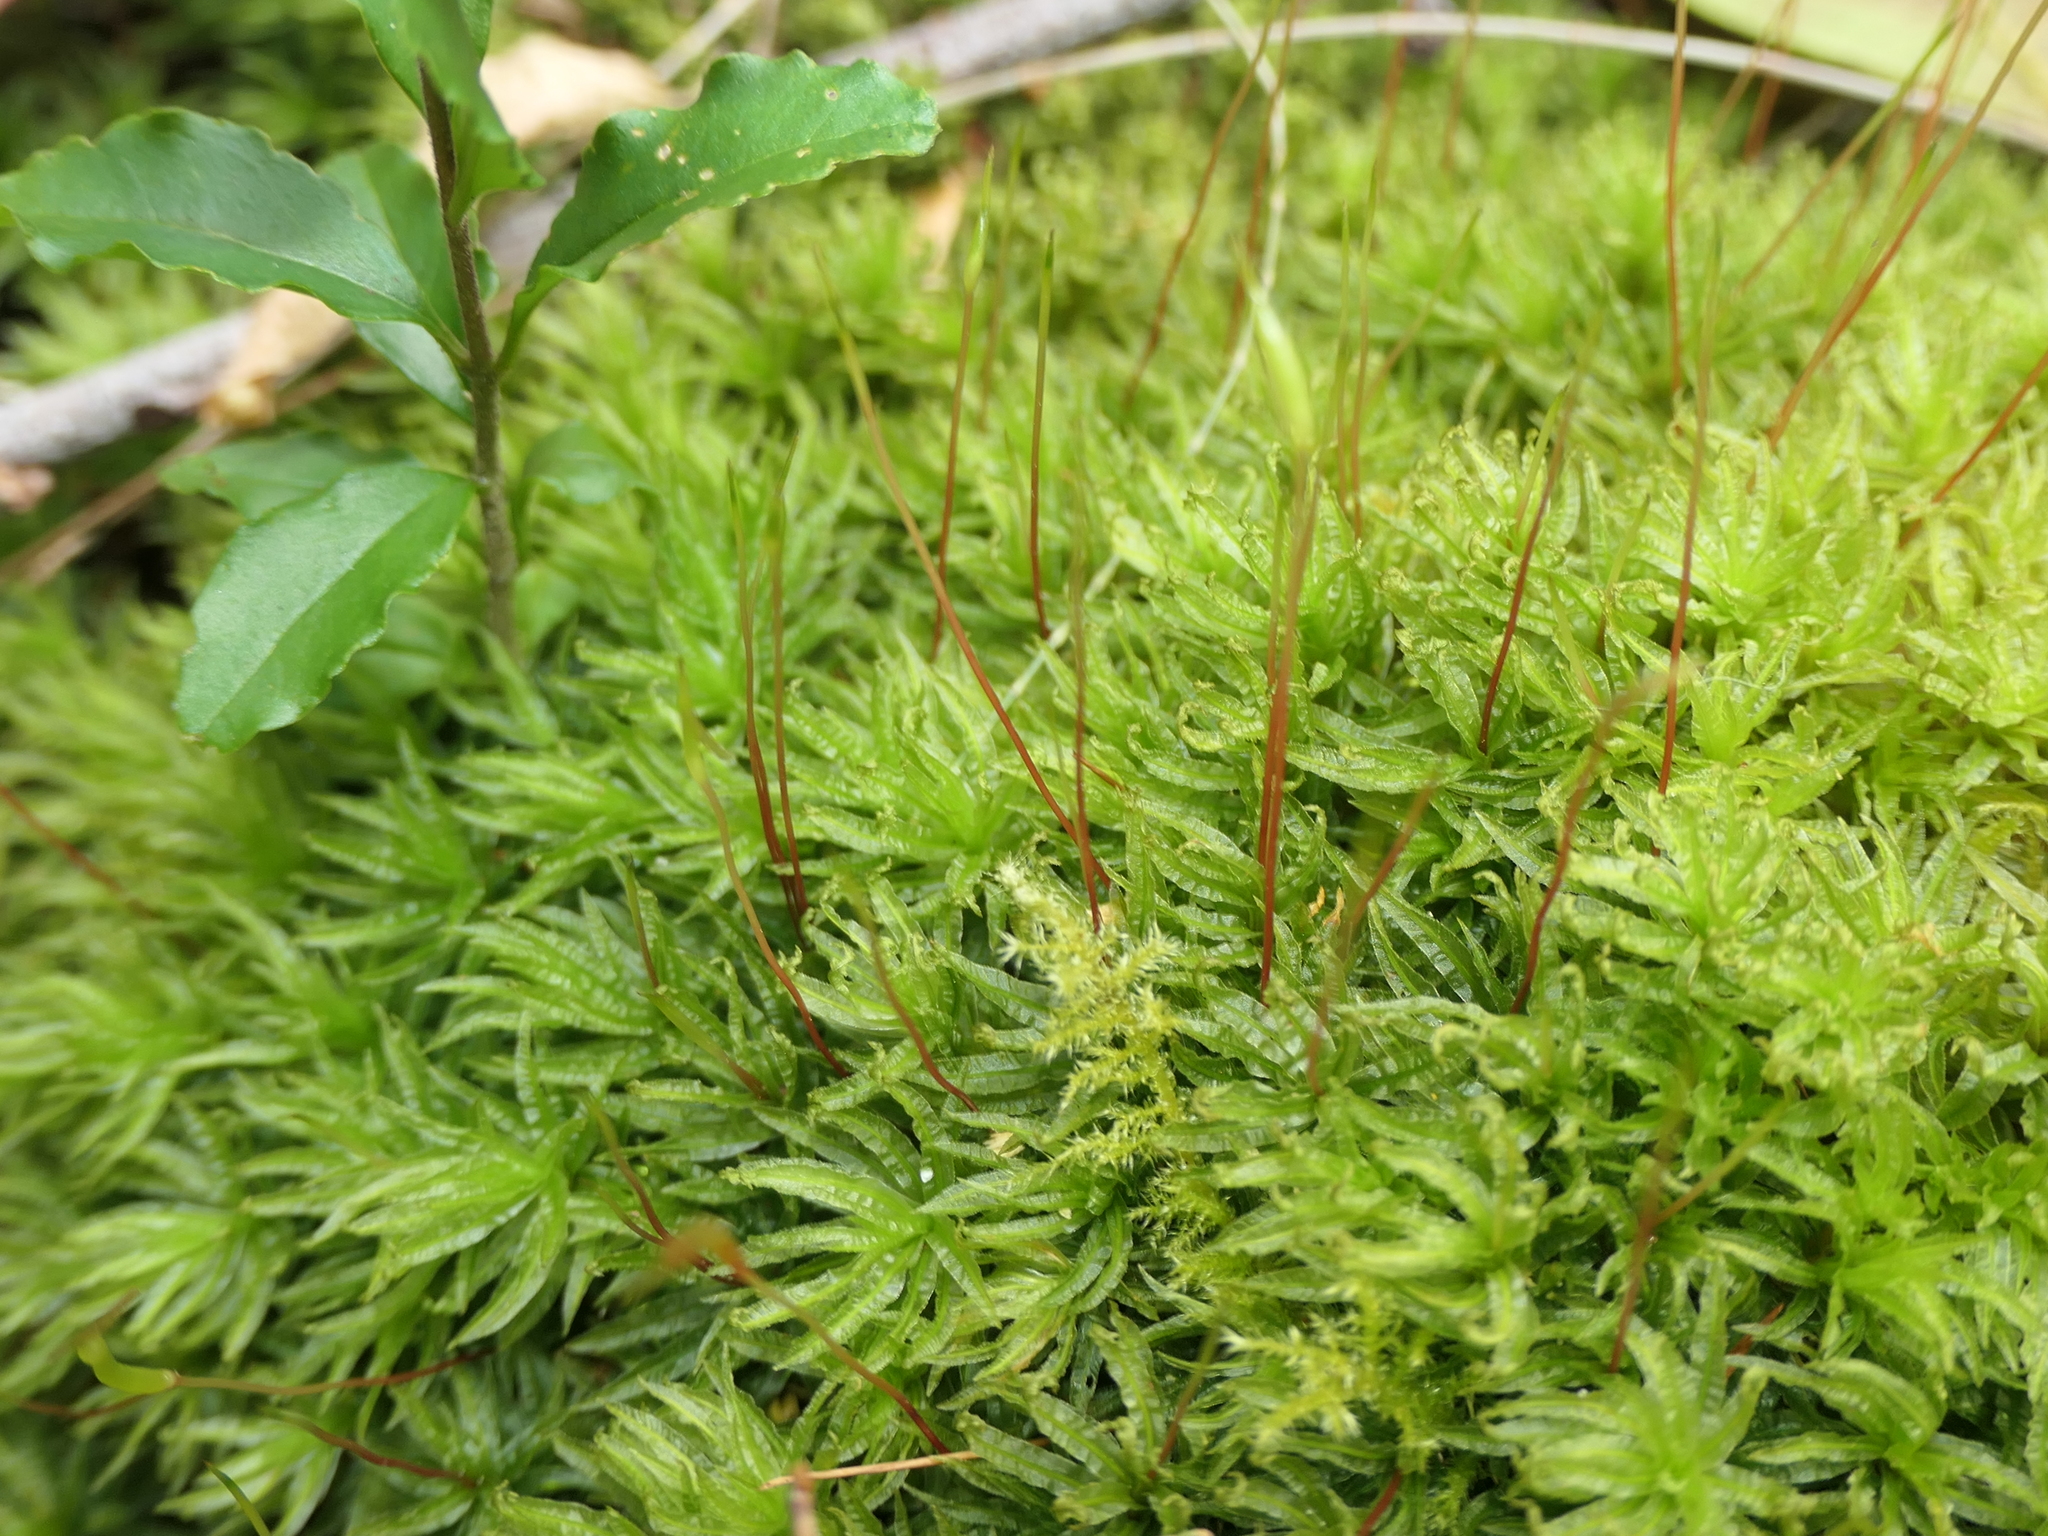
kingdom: Plantae
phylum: Bryophyta
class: Polytrichopsida
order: Polytrichales
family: Polytrichaceae
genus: Atrichum
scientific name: Atrichum androgynum
